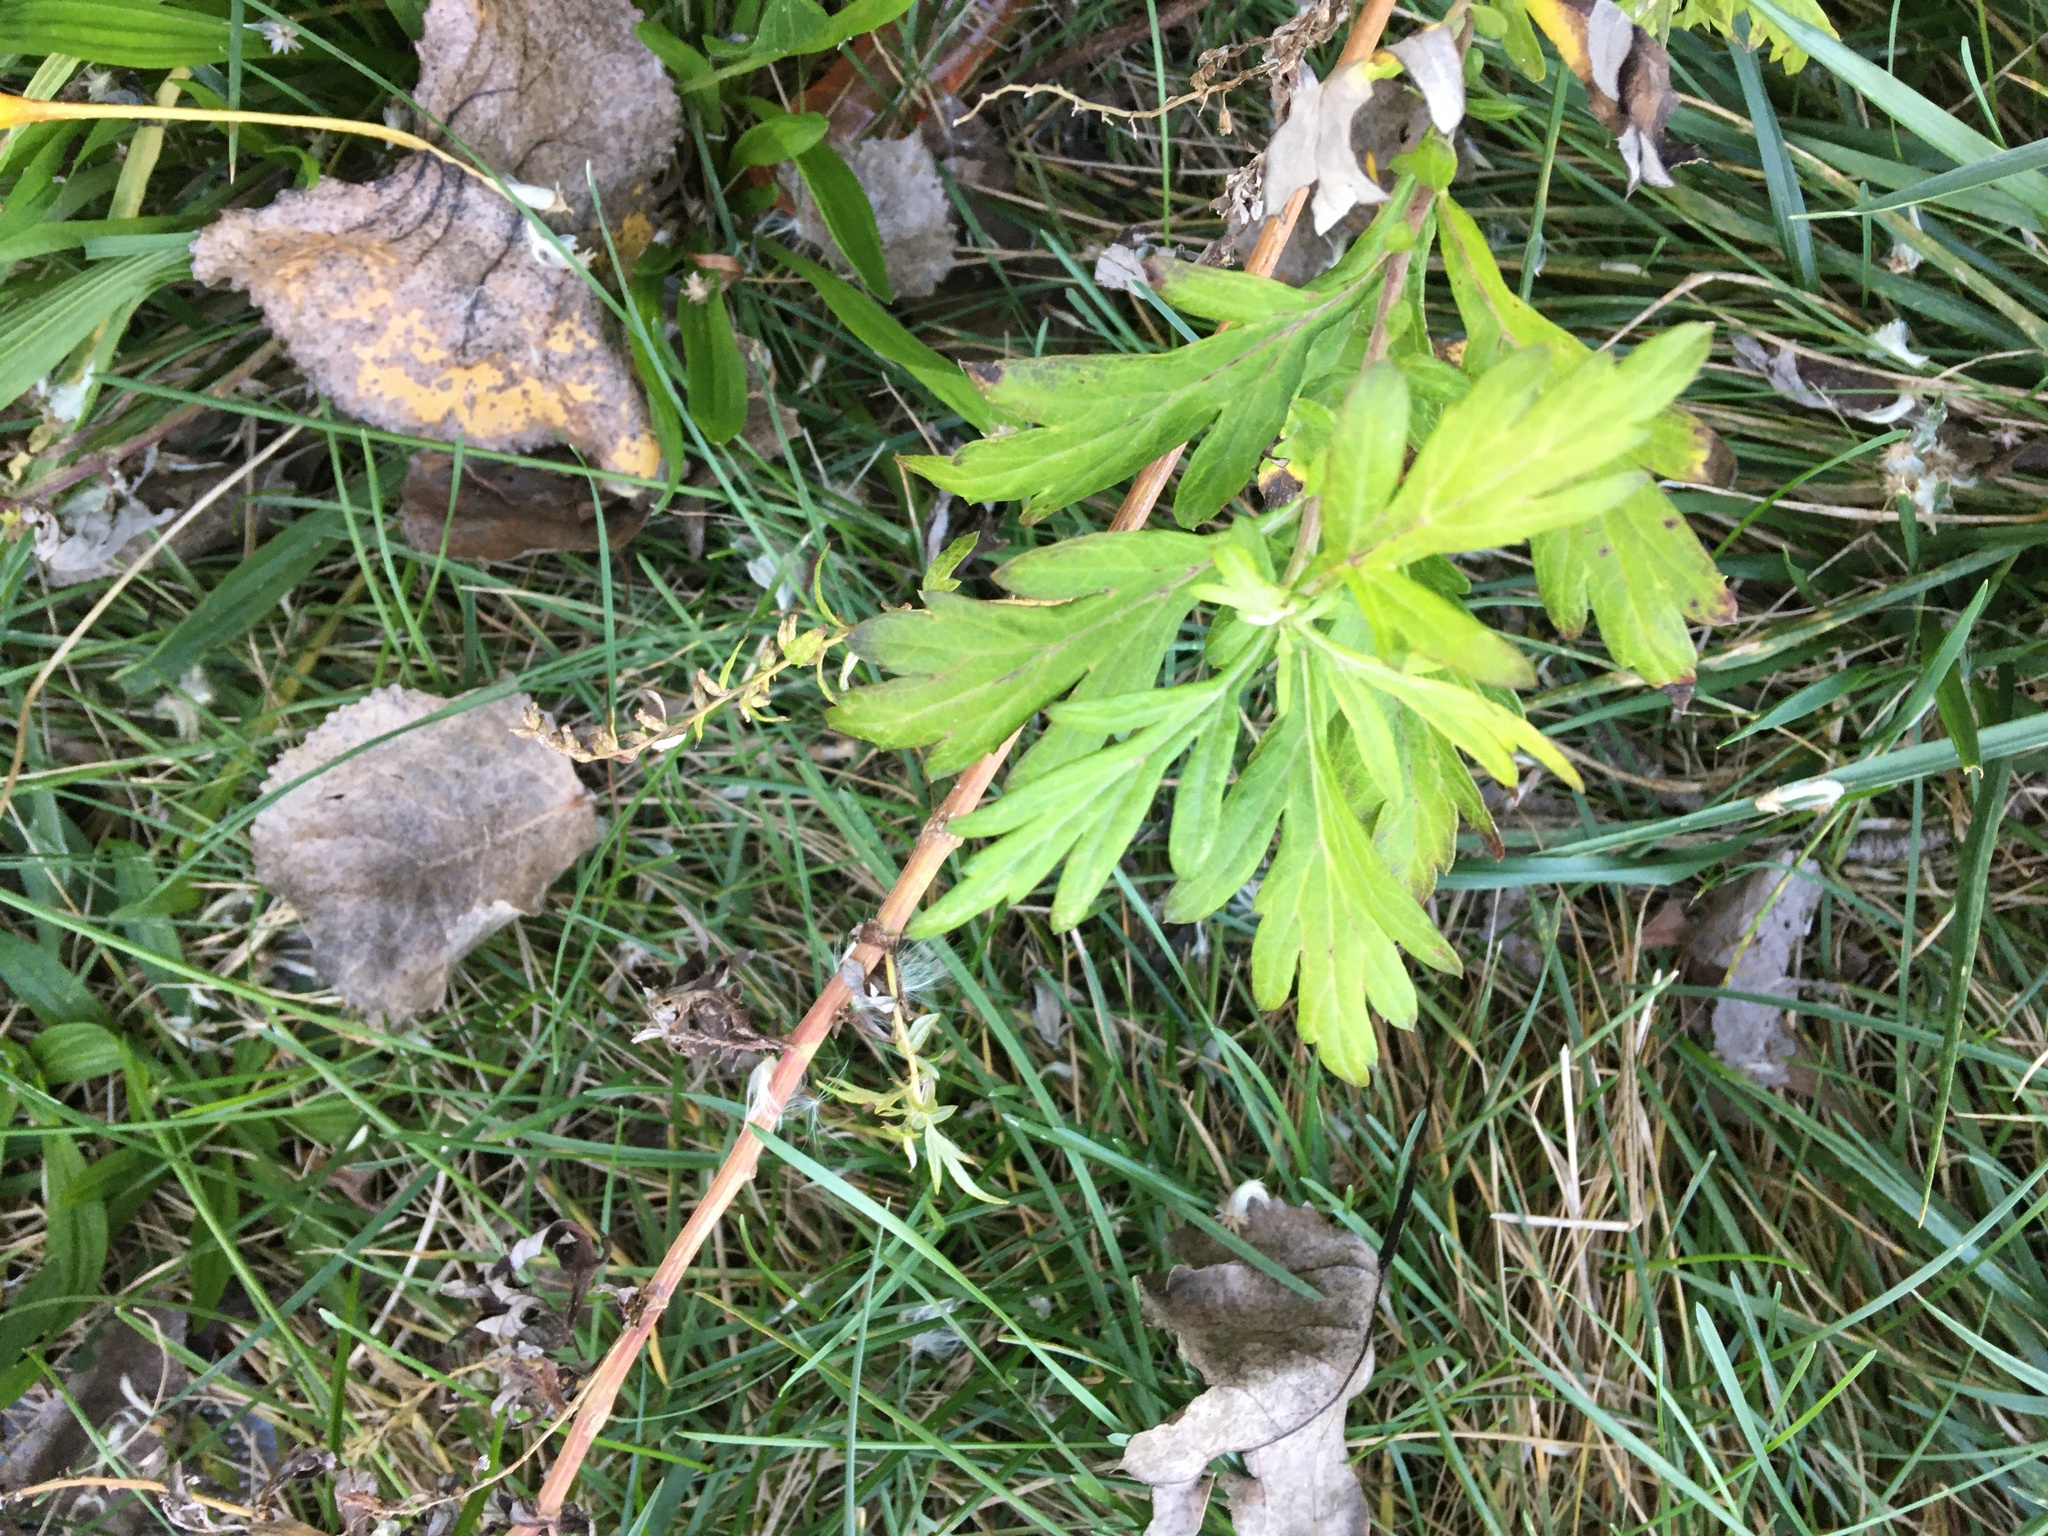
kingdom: Plantae
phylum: Tracheophyta
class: Magnoliopsida
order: Asterales
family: Asteraceae
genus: Artemisia
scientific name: Artemisia vulgaris
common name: Mugwort
